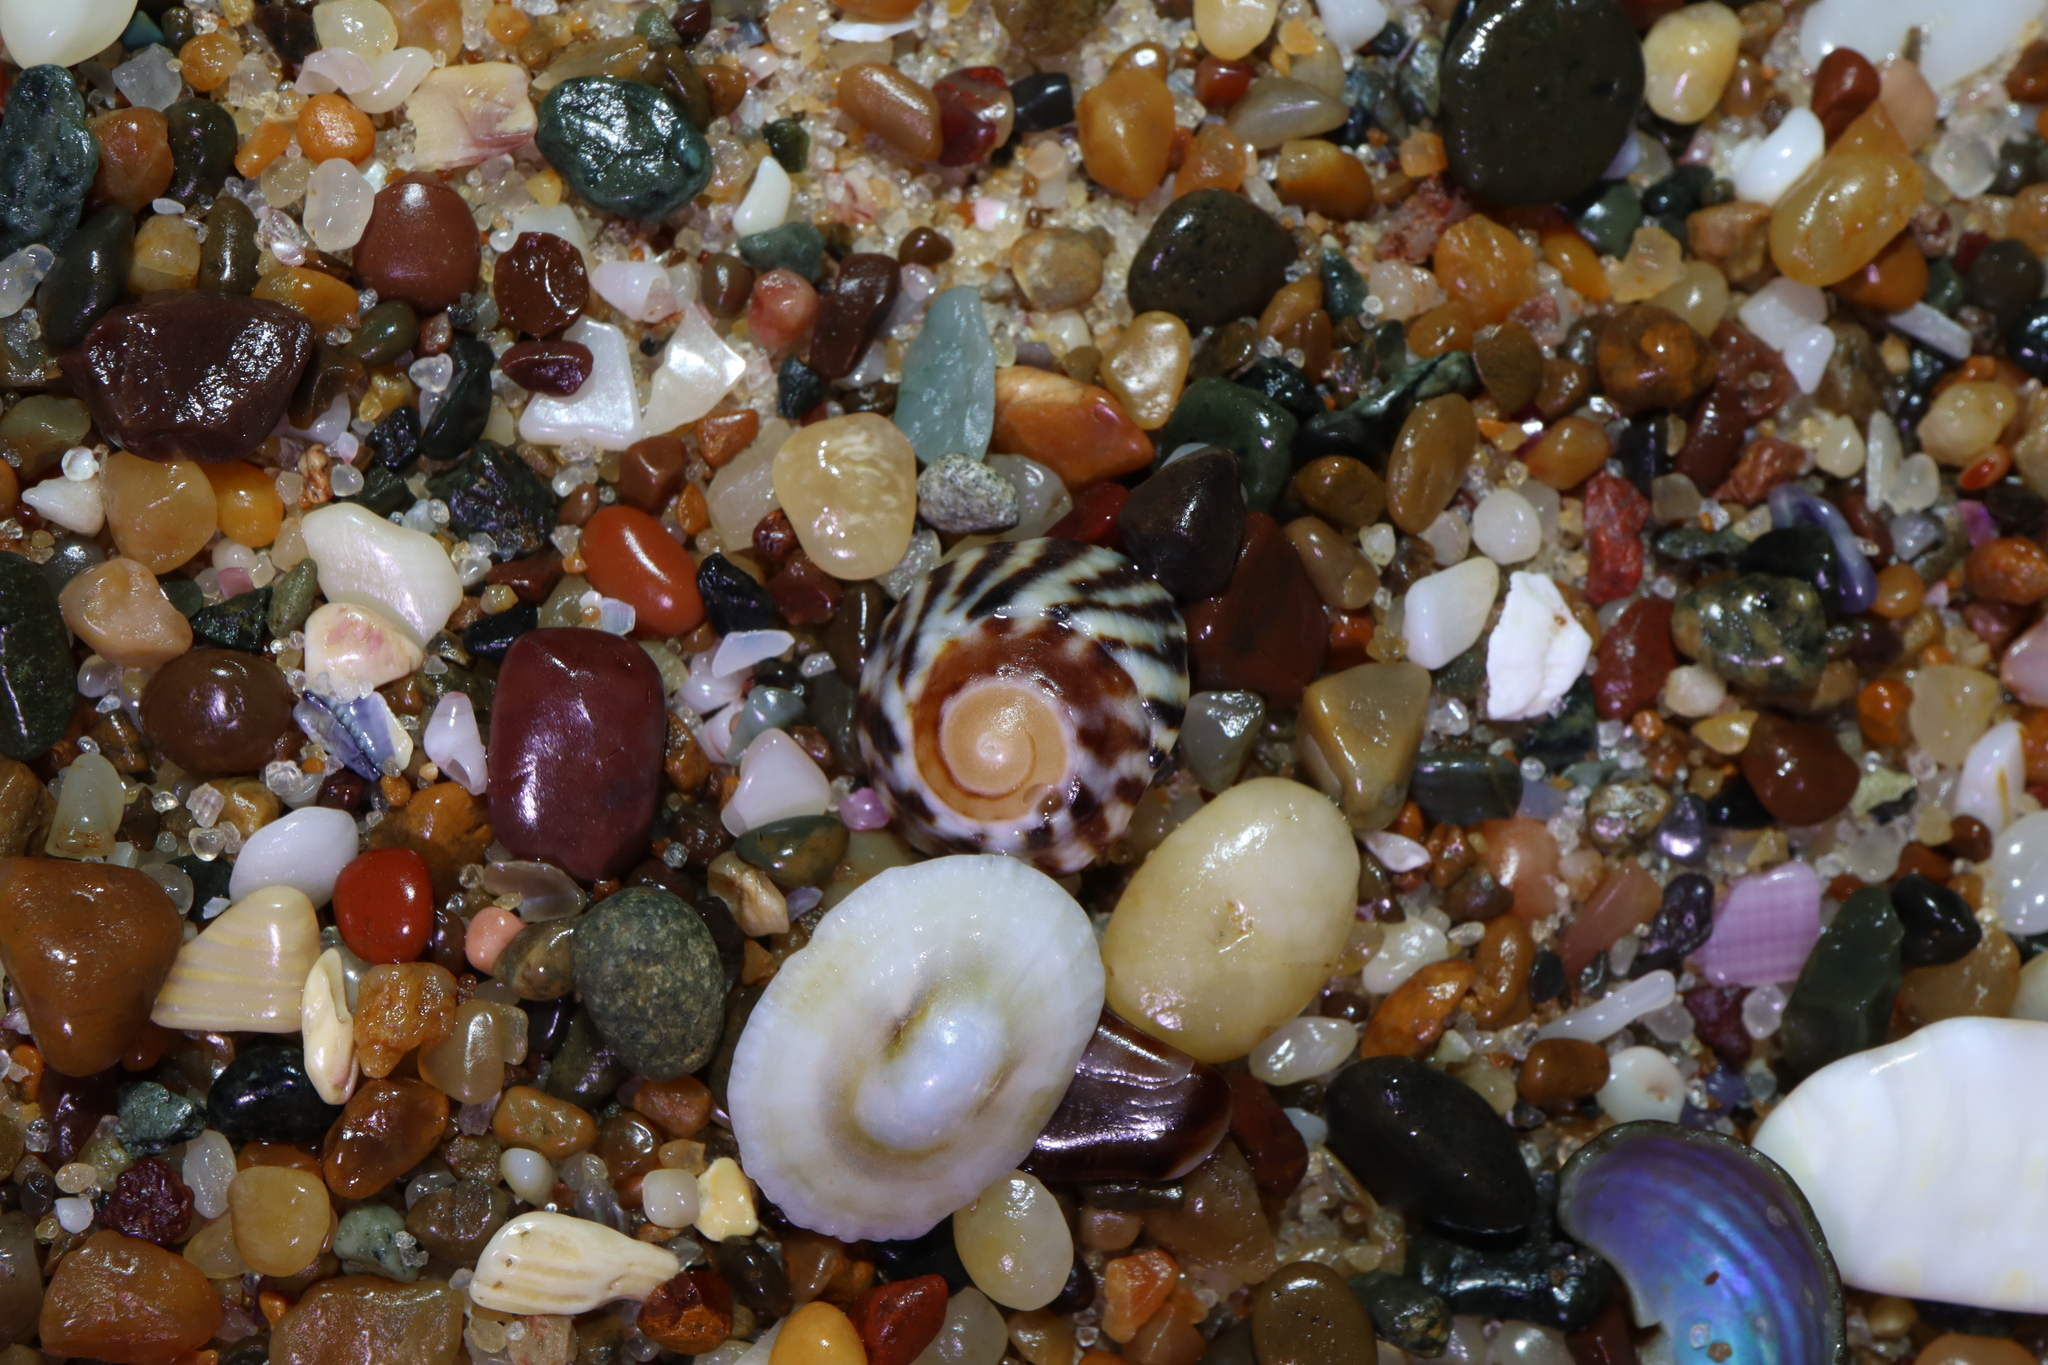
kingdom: Animalia
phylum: Mollusca
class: Gastropoda
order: Littorinimorpha
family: Littorinidae
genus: Bembicium
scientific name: Bembicium nanum
